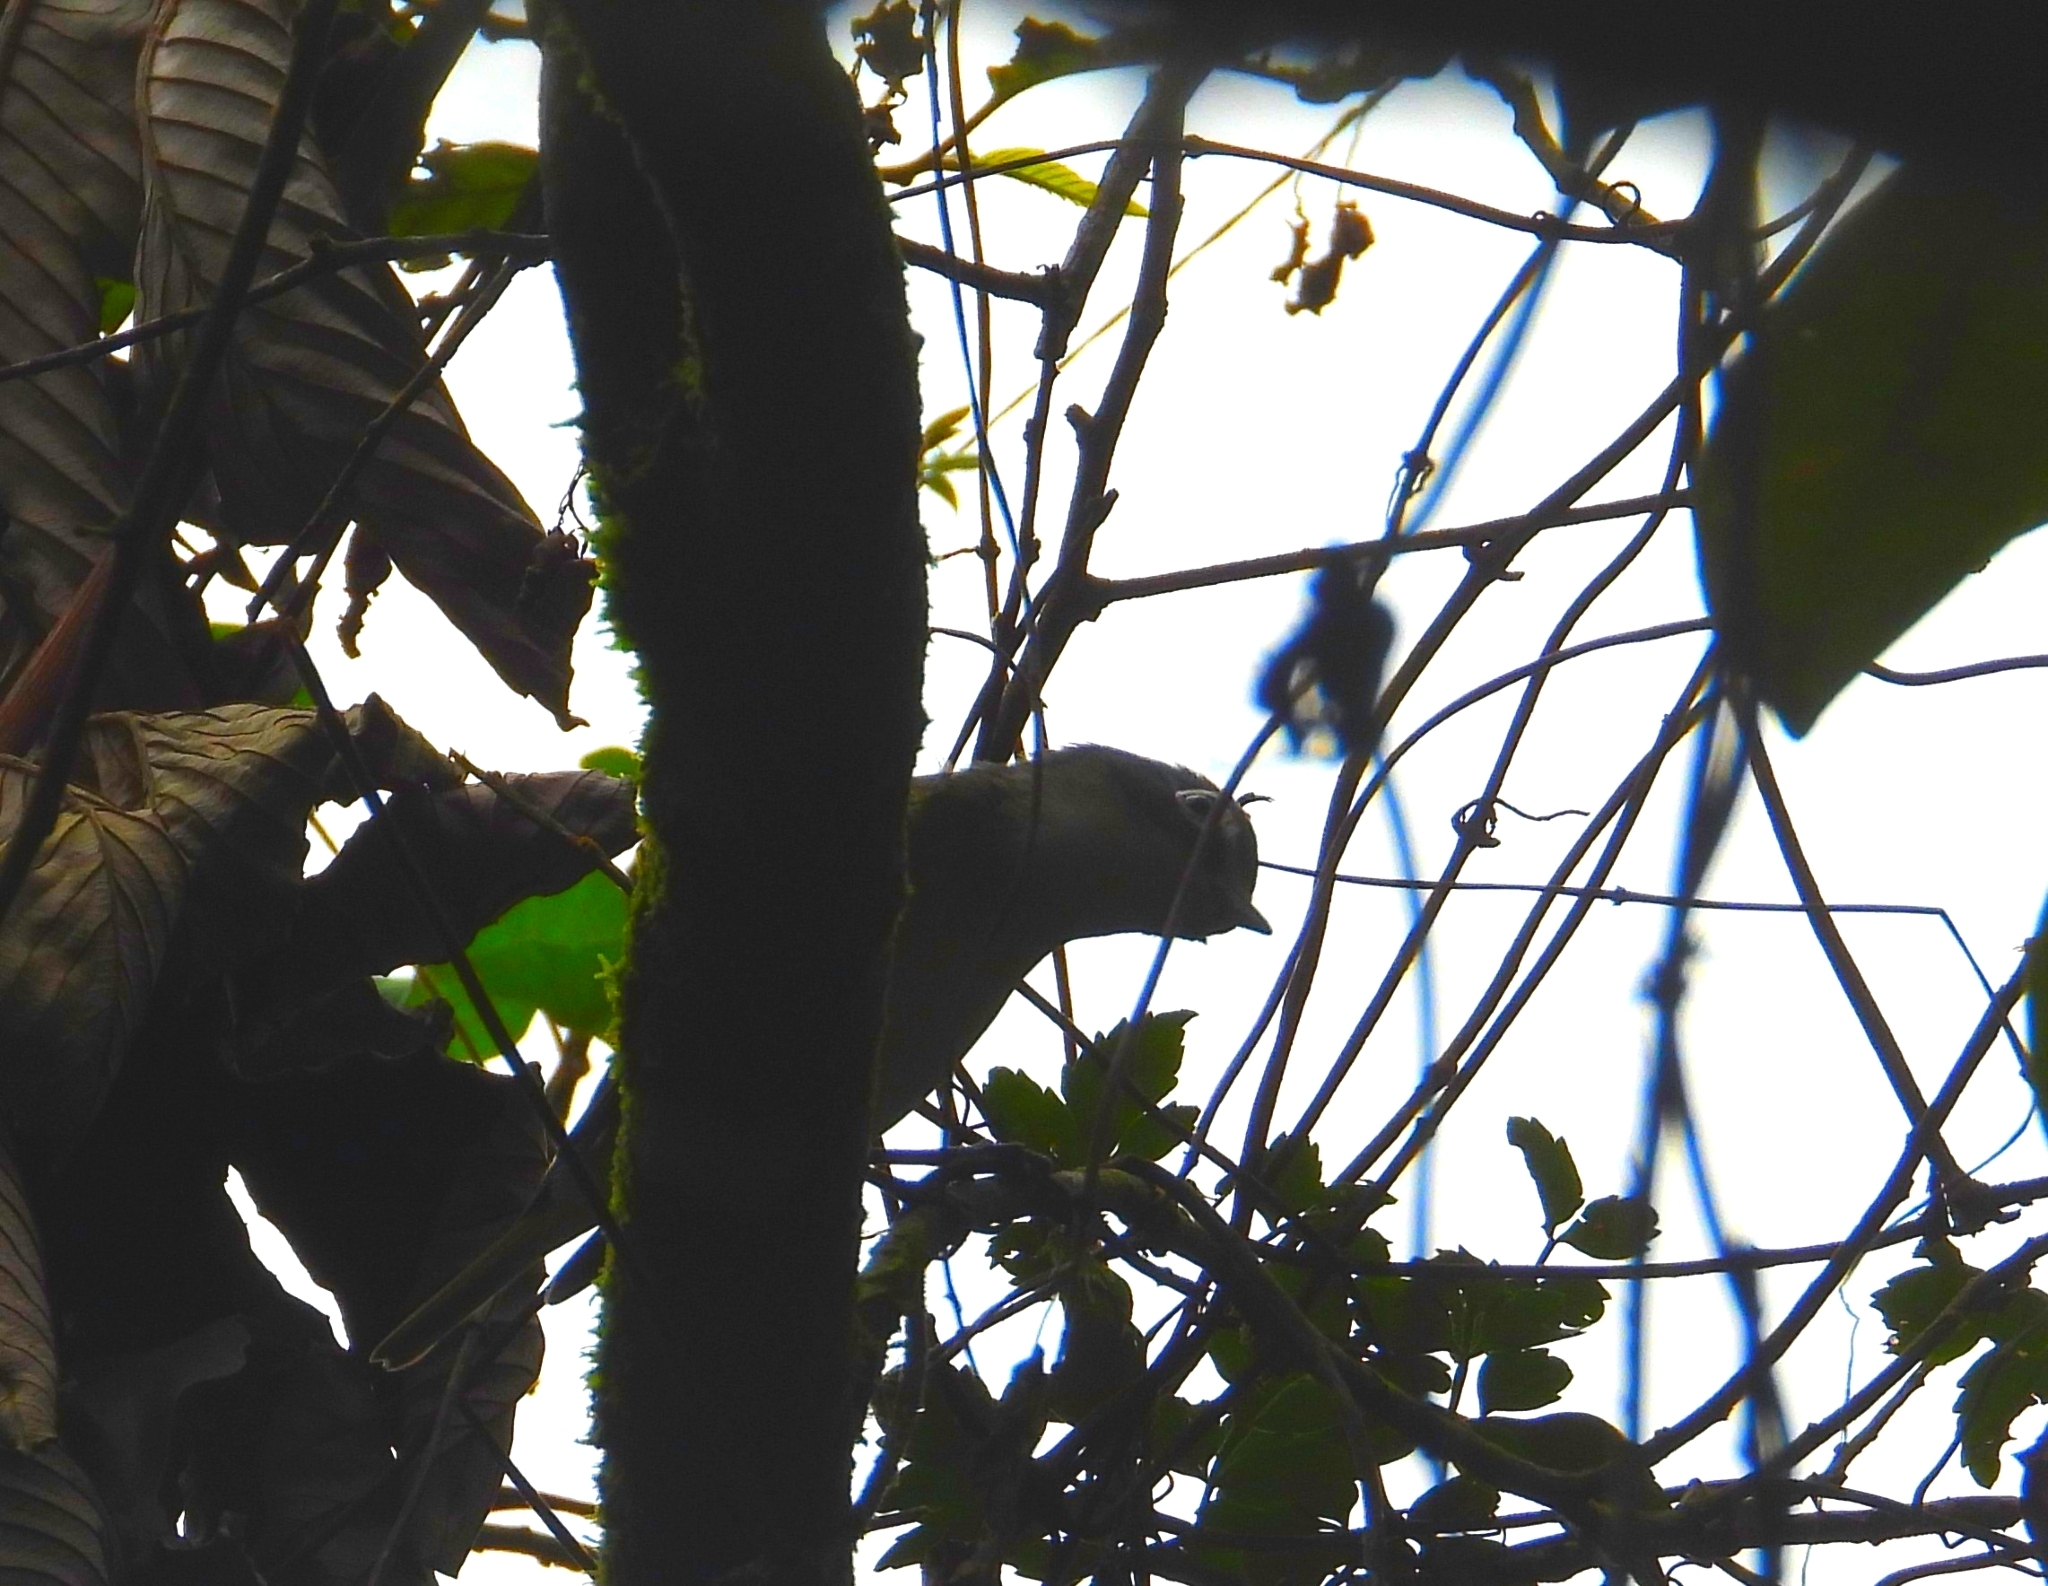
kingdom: Animalia
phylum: Chordata
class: Aves
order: Passeriformes
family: Vireonidae
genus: Vireo
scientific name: Vireo solitarius
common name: Blue-headed vireo
